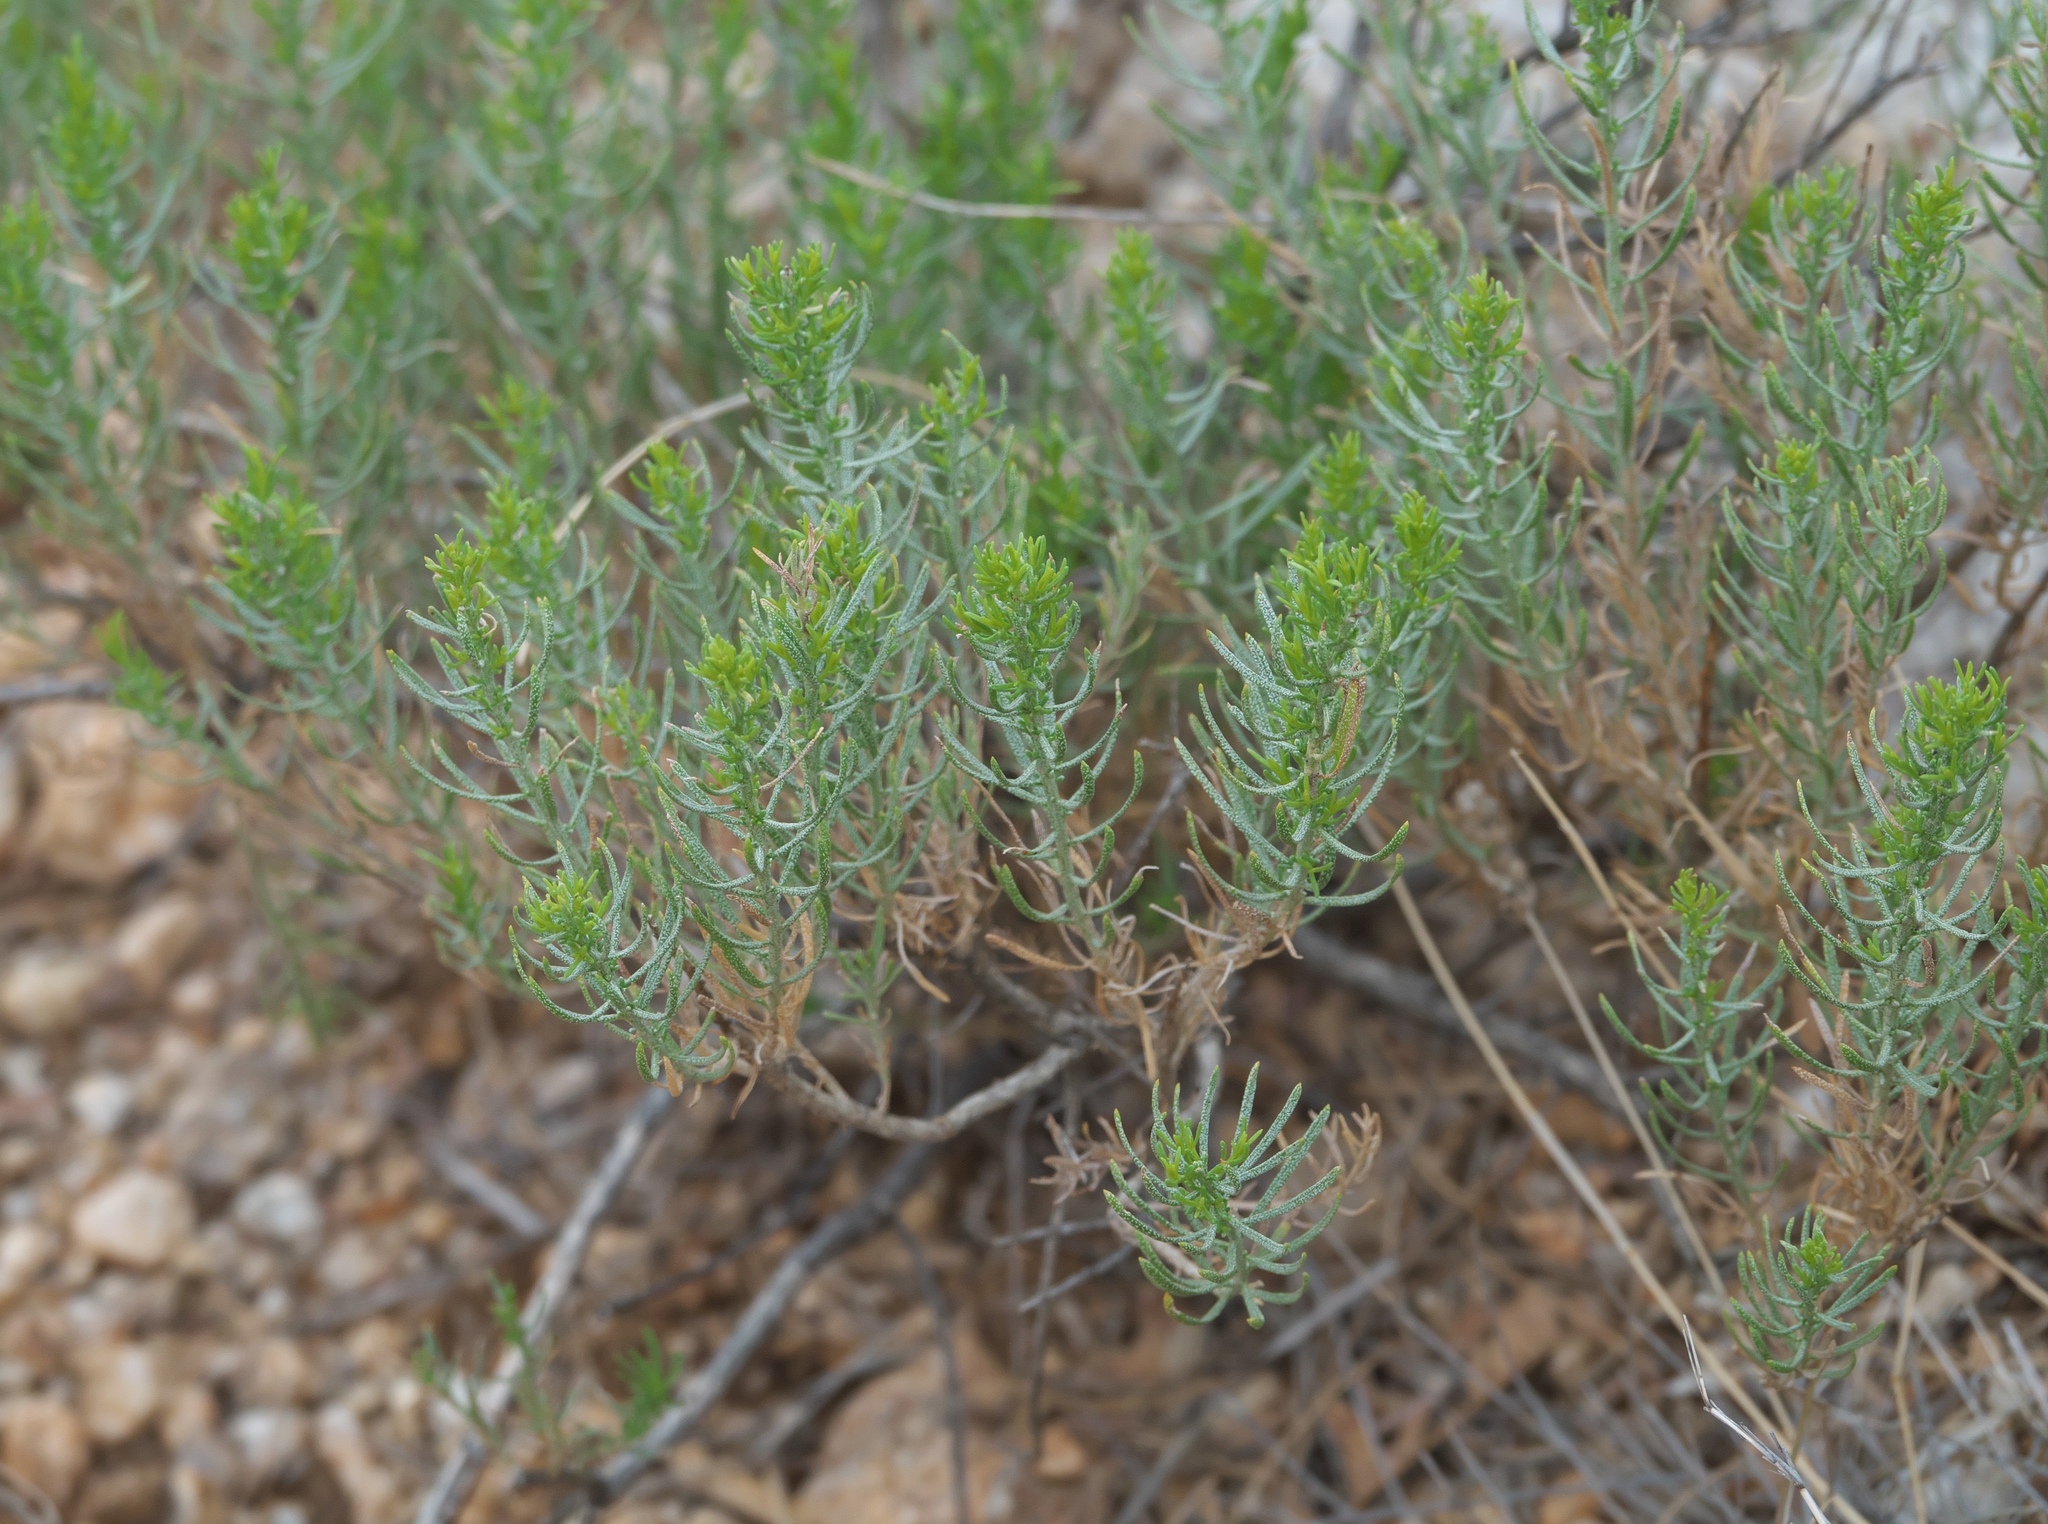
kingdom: Plantae
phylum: Tracheophyta
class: Magnoliopsida
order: Asterales
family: Asteraceae
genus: Ericameria
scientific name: Ericameria laricifolia
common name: Turpentine-bush
